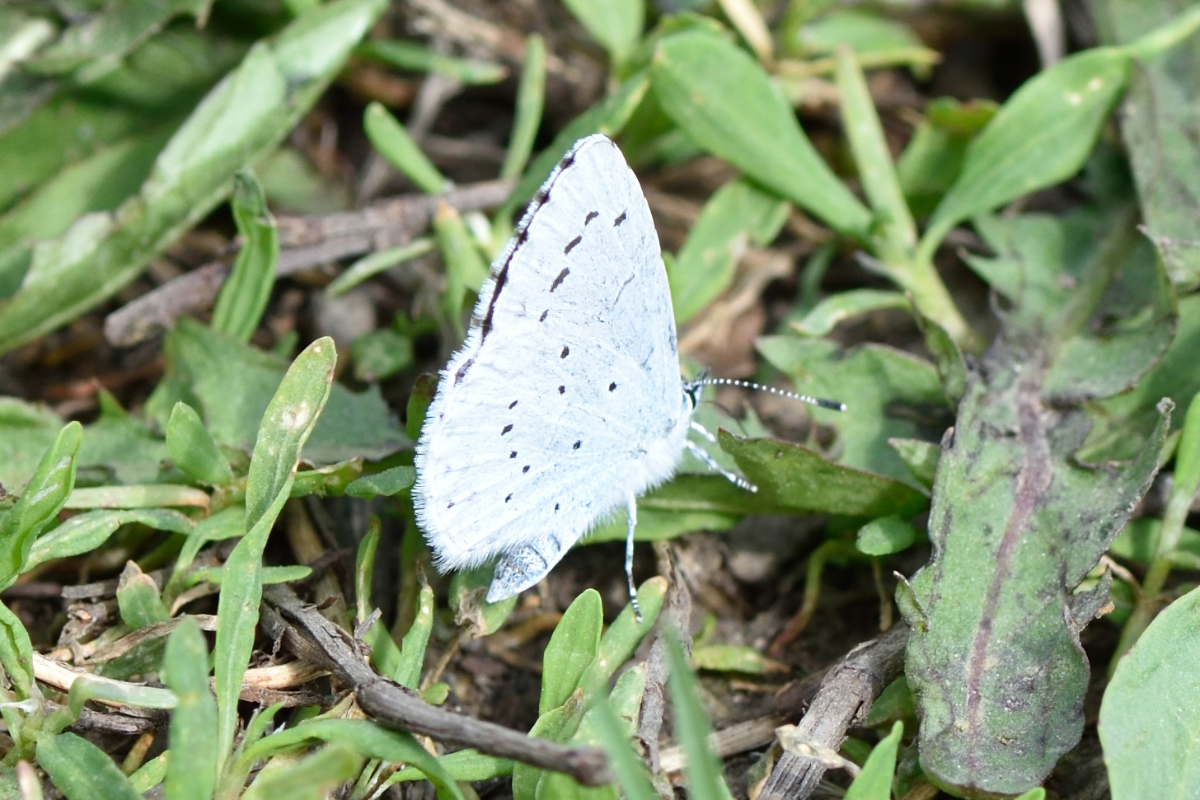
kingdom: Animalia
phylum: Arthropoda
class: Insecta
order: Lepidoptera
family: Lycaenidae
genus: Celastrina
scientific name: Celastrina argiolus
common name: Holly blue
